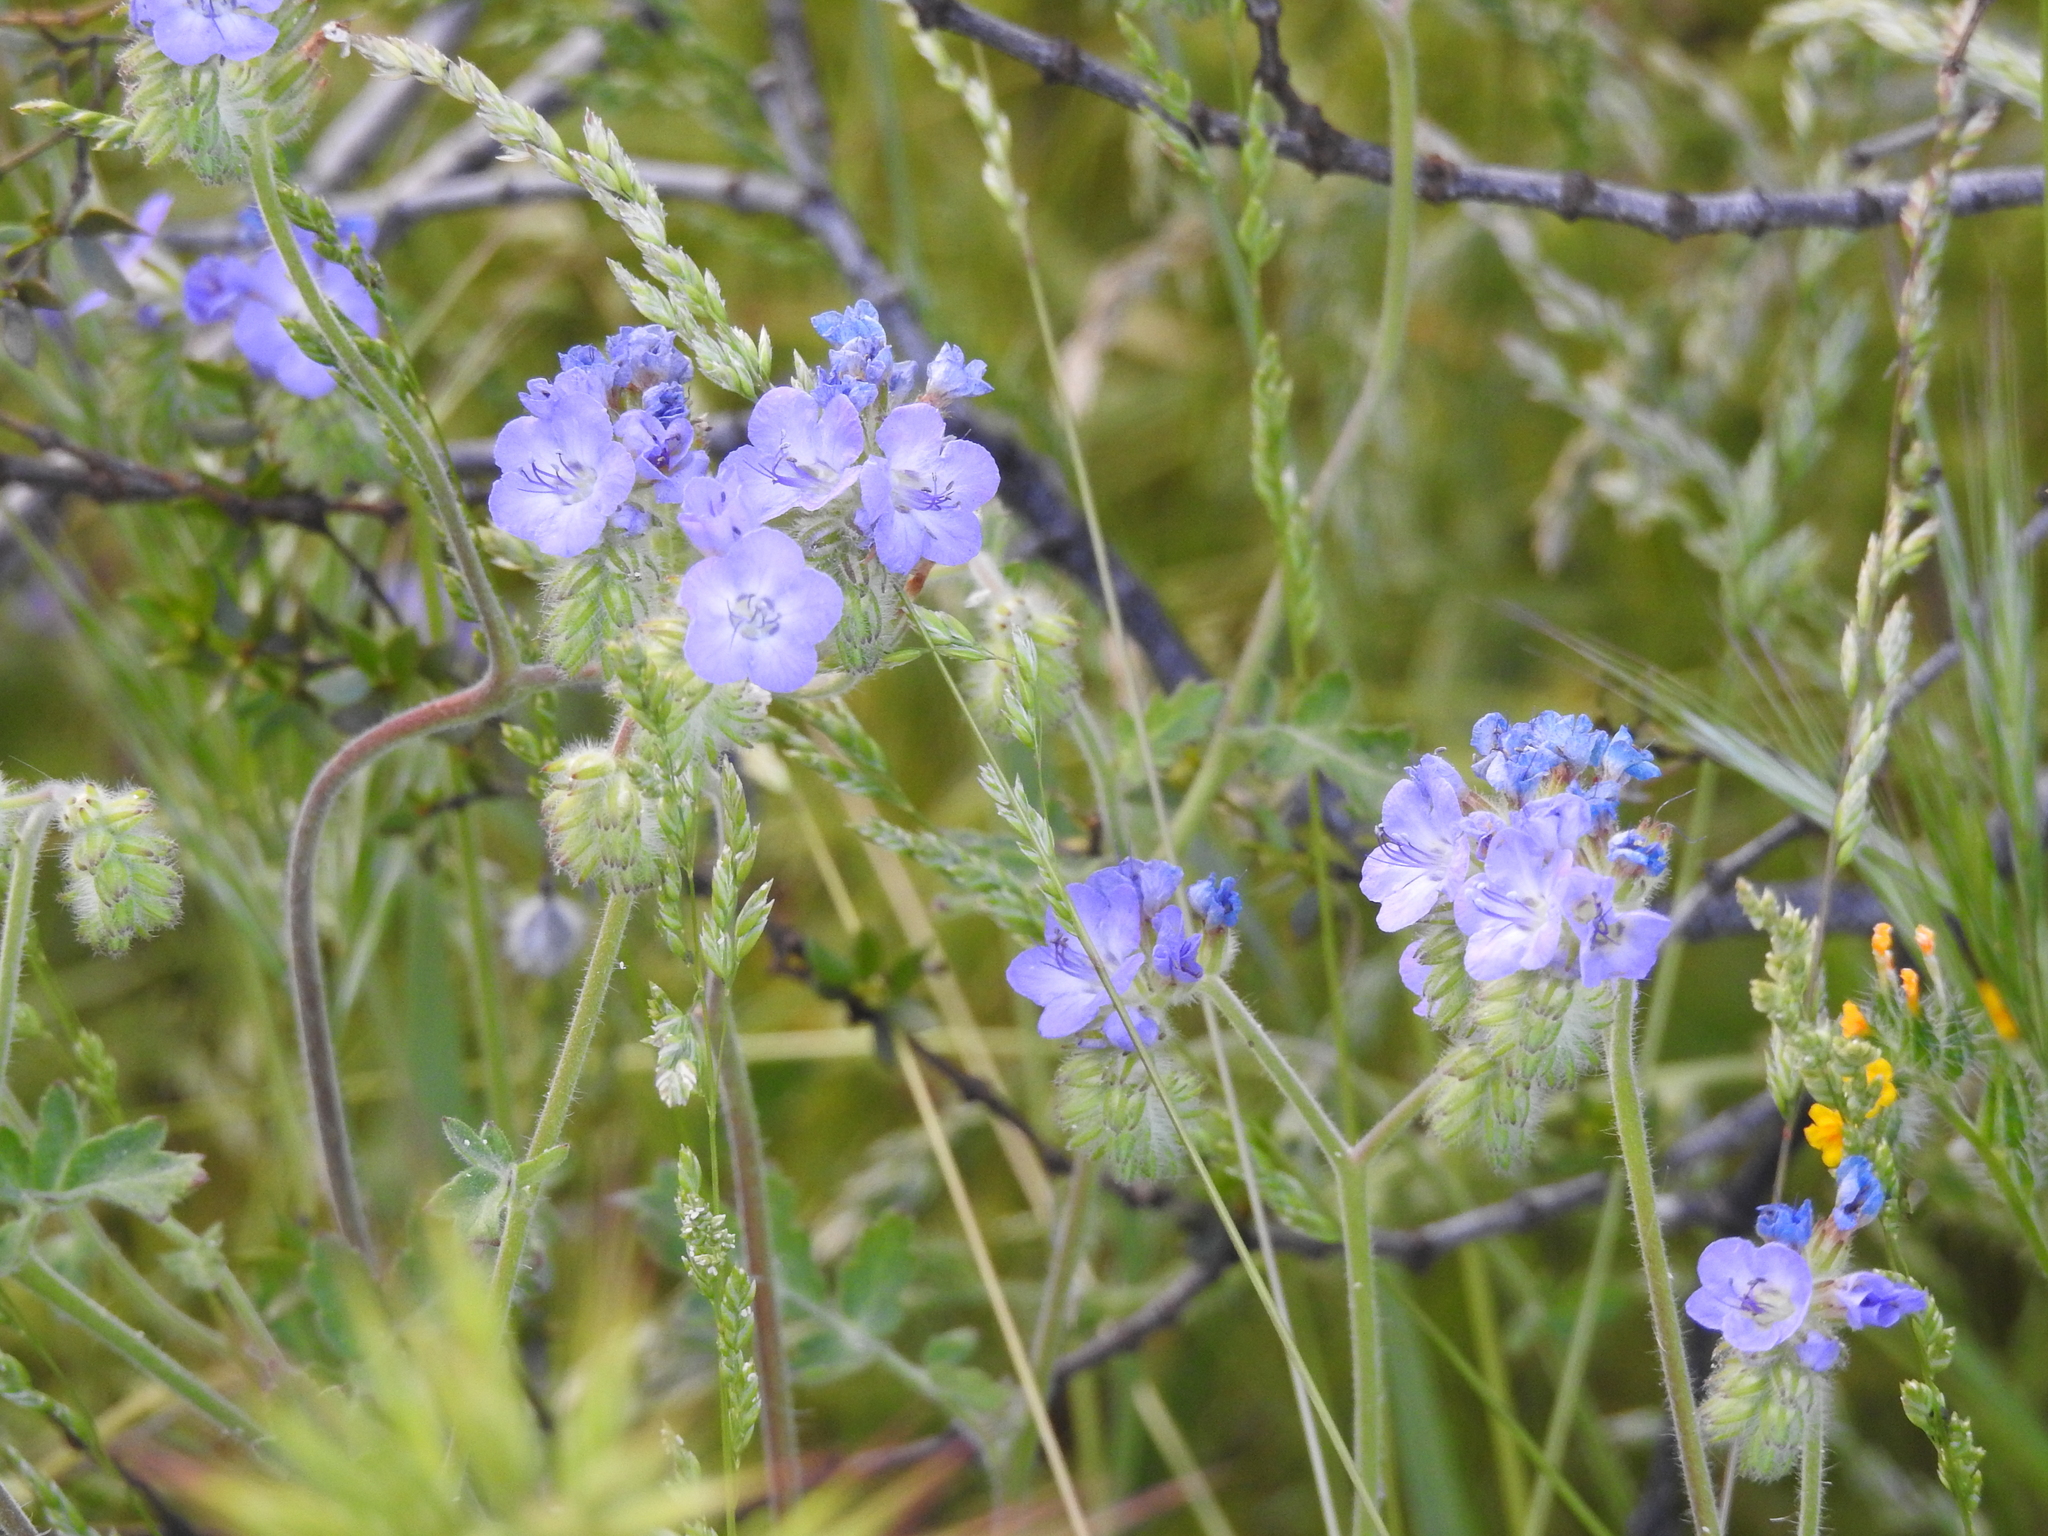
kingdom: Plantae
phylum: Tracheophyta
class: Magnoliopsida
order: Boraginales
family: Hydrophyllaceae
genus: Phacelia
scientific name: Phacelia distans
